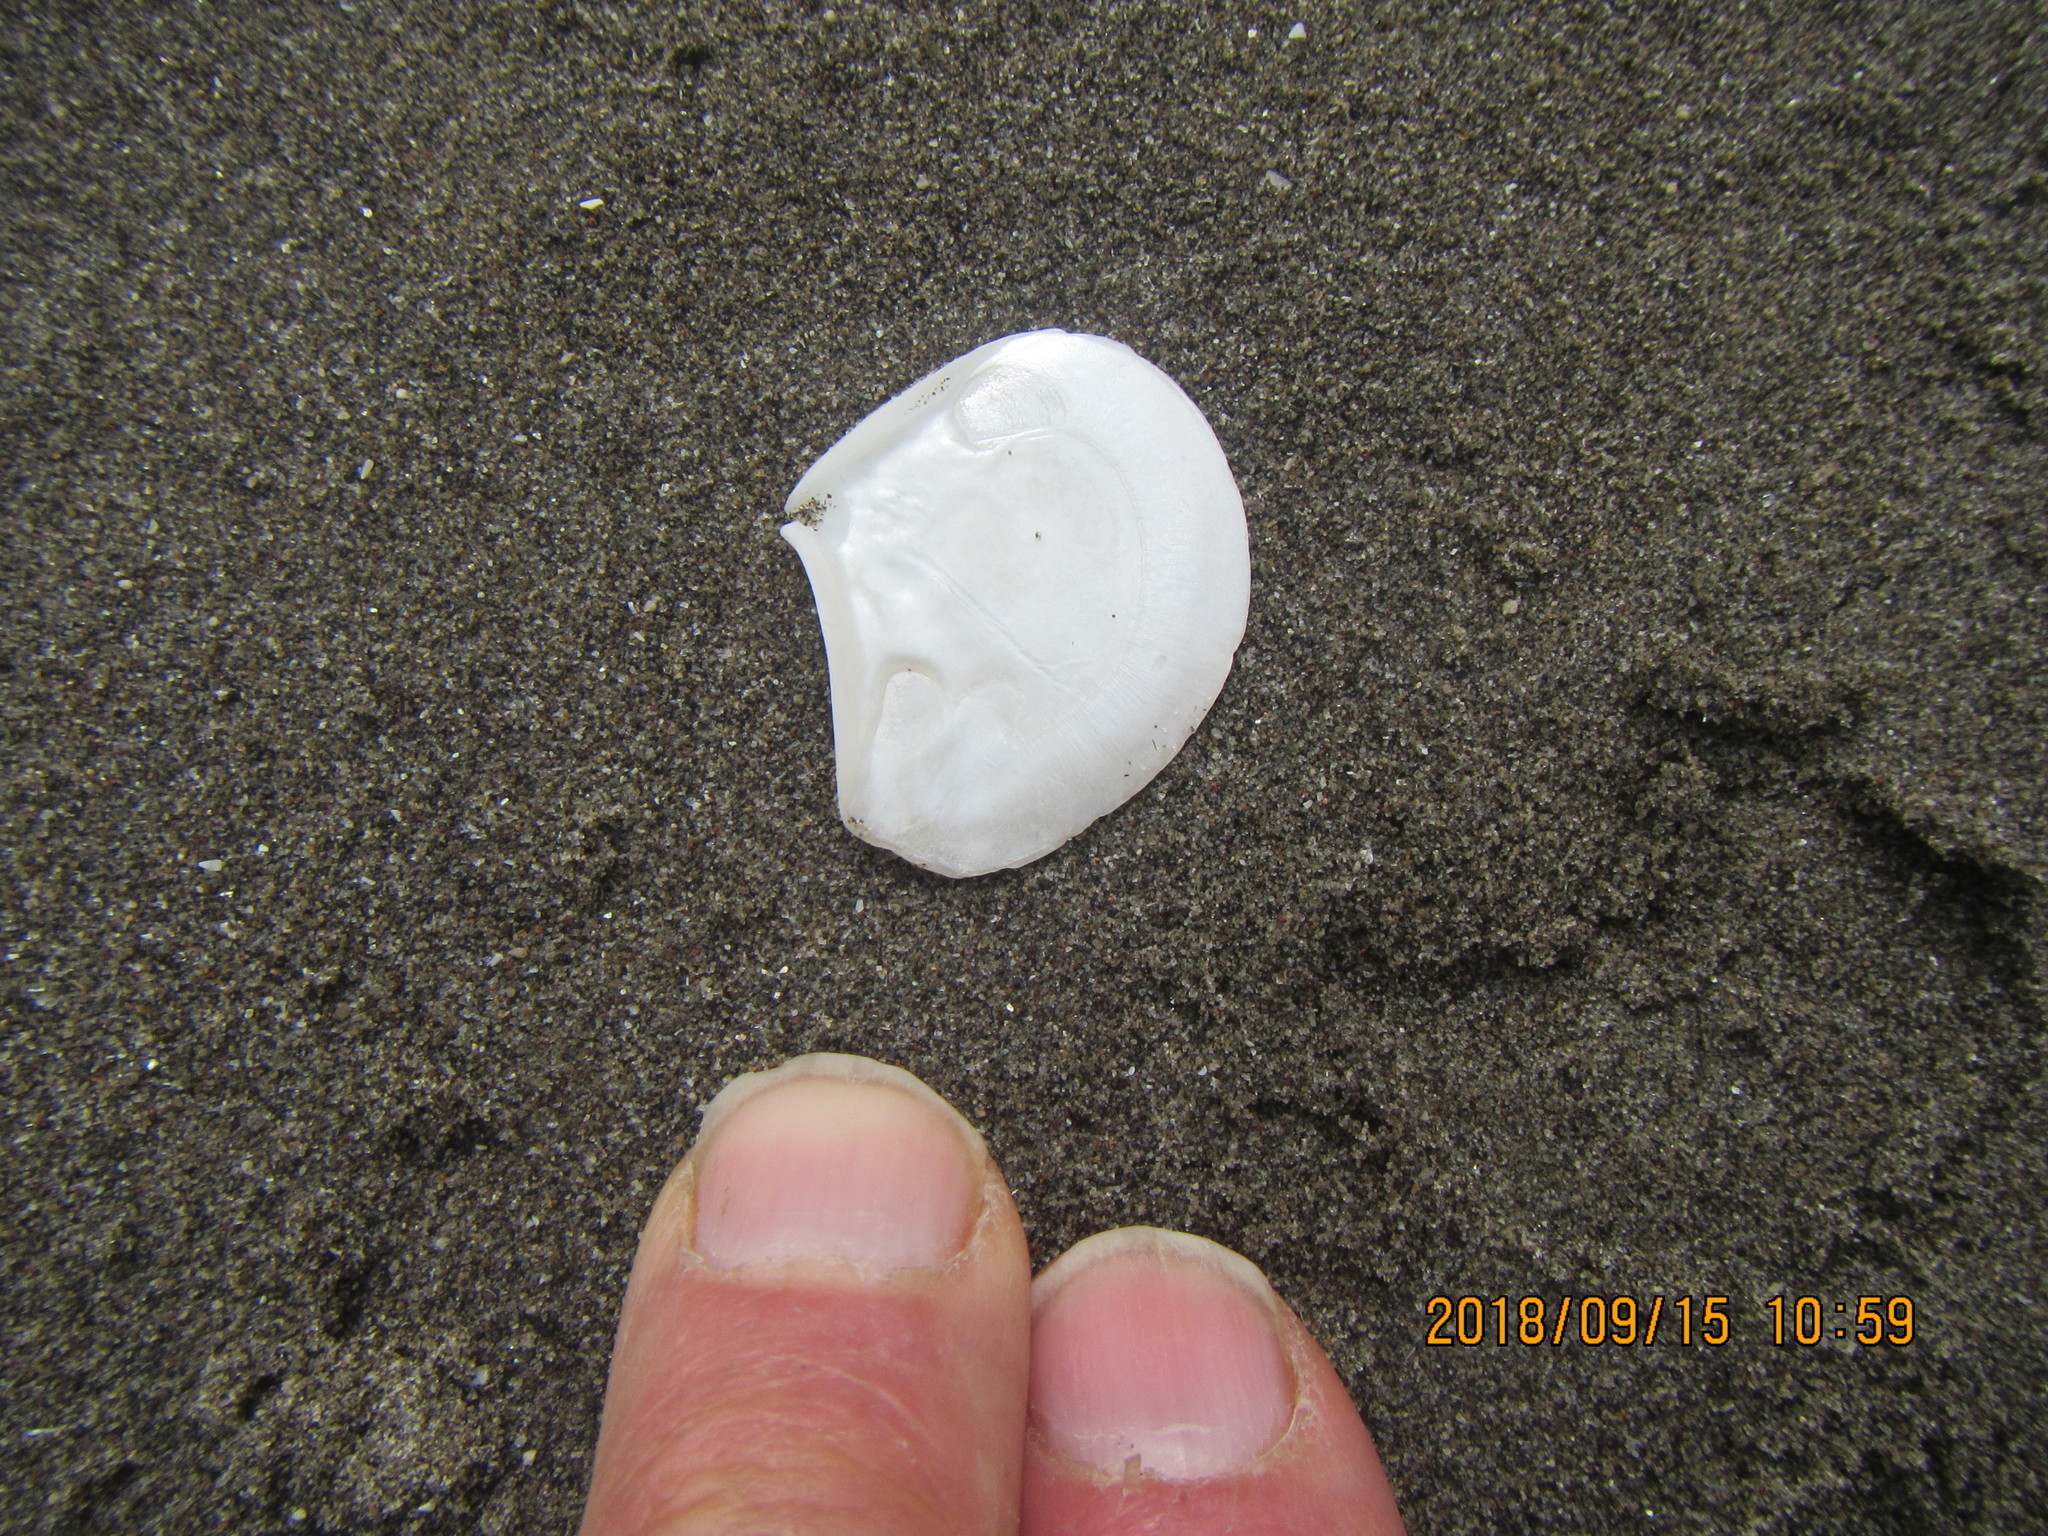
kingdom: Animalia
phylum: Mollusca
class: Bivalvia
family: Myochamidae
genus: Myadora
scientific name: Myadora striata
